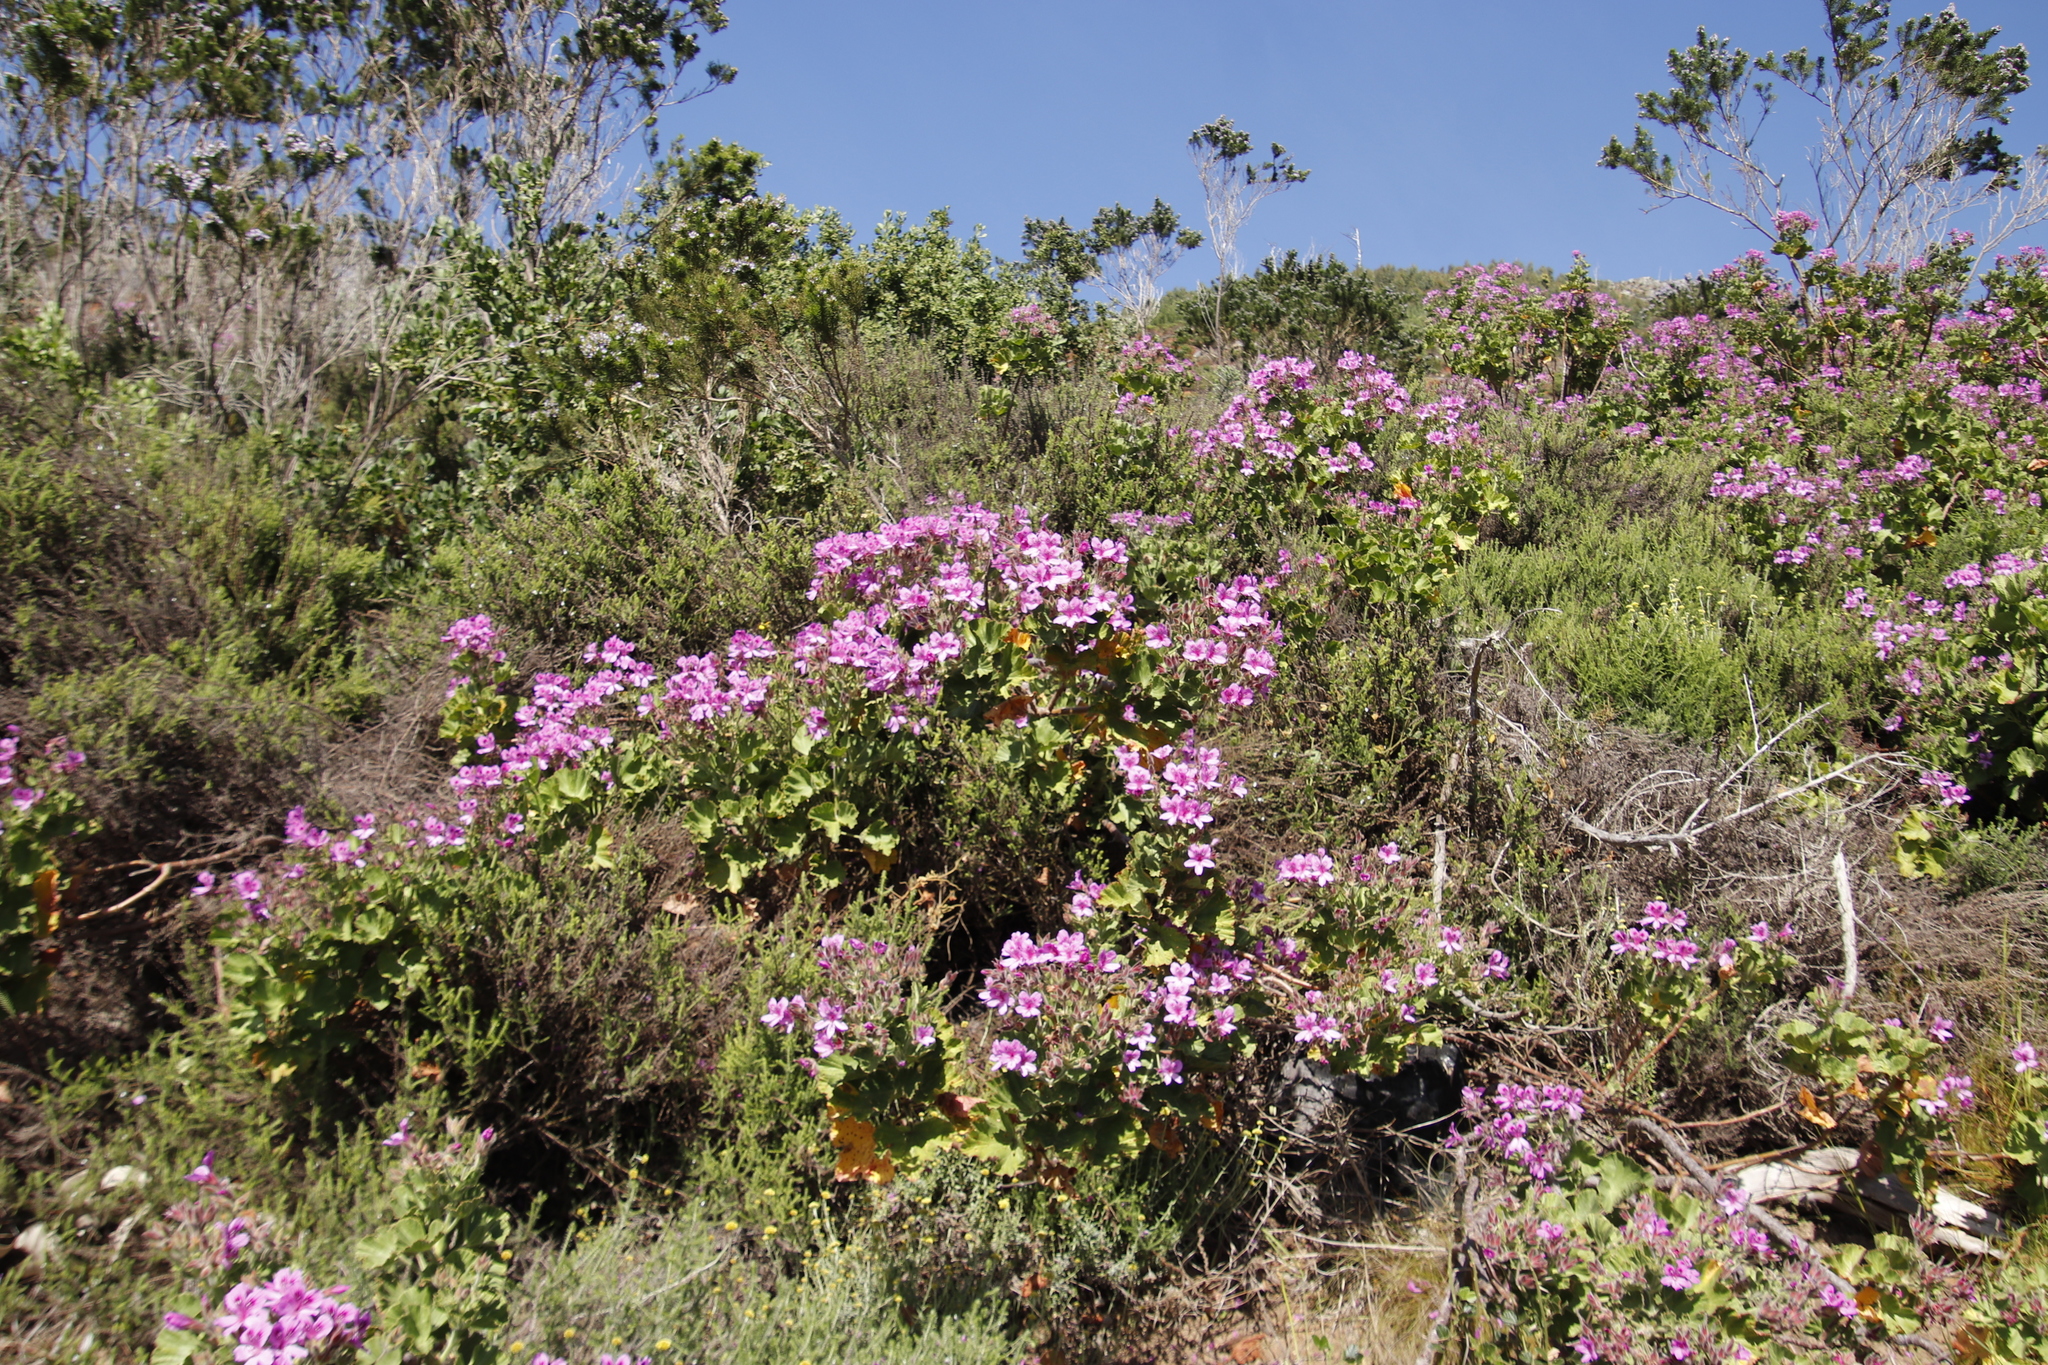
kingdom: Plantae
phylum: Tracheophyta
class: Magnoliopsida
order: Geraniales
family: Geraniaceae
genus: Pelargonium
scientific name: Pelargonium cucullatum
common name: Tree pelargonium
